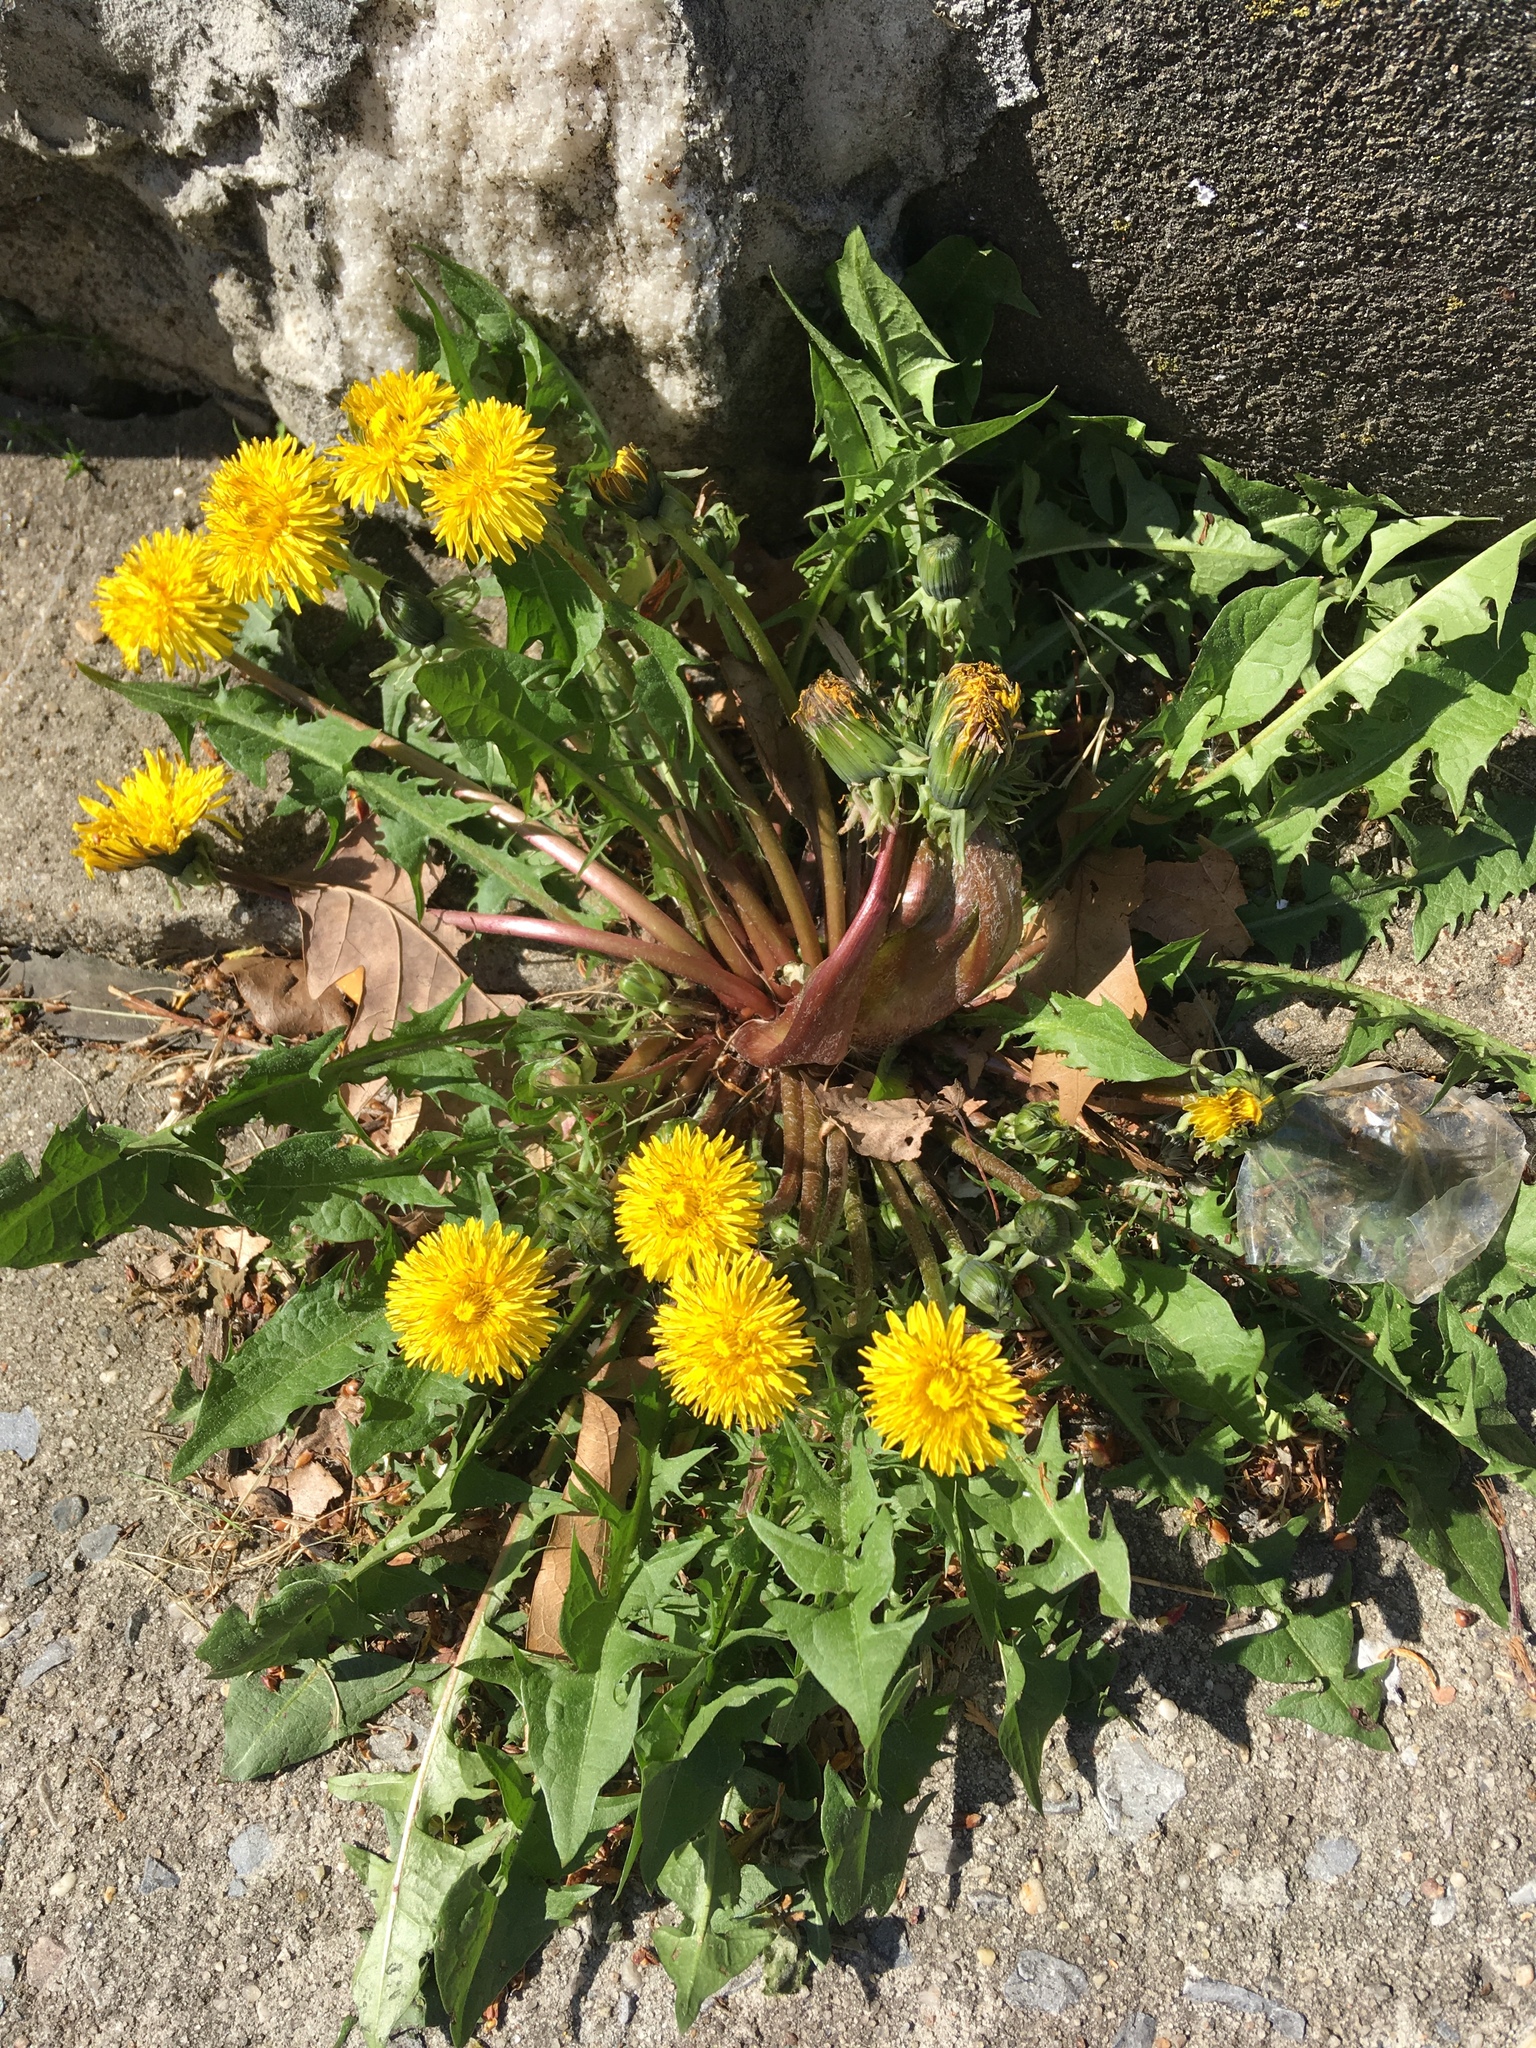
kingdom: Plantae
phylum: Tracheophyta
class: Magnoliopsida
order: Asterales
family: Asteraceae
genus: Taraxacum
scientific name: Taraxacum officinale
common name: Common dandelion
